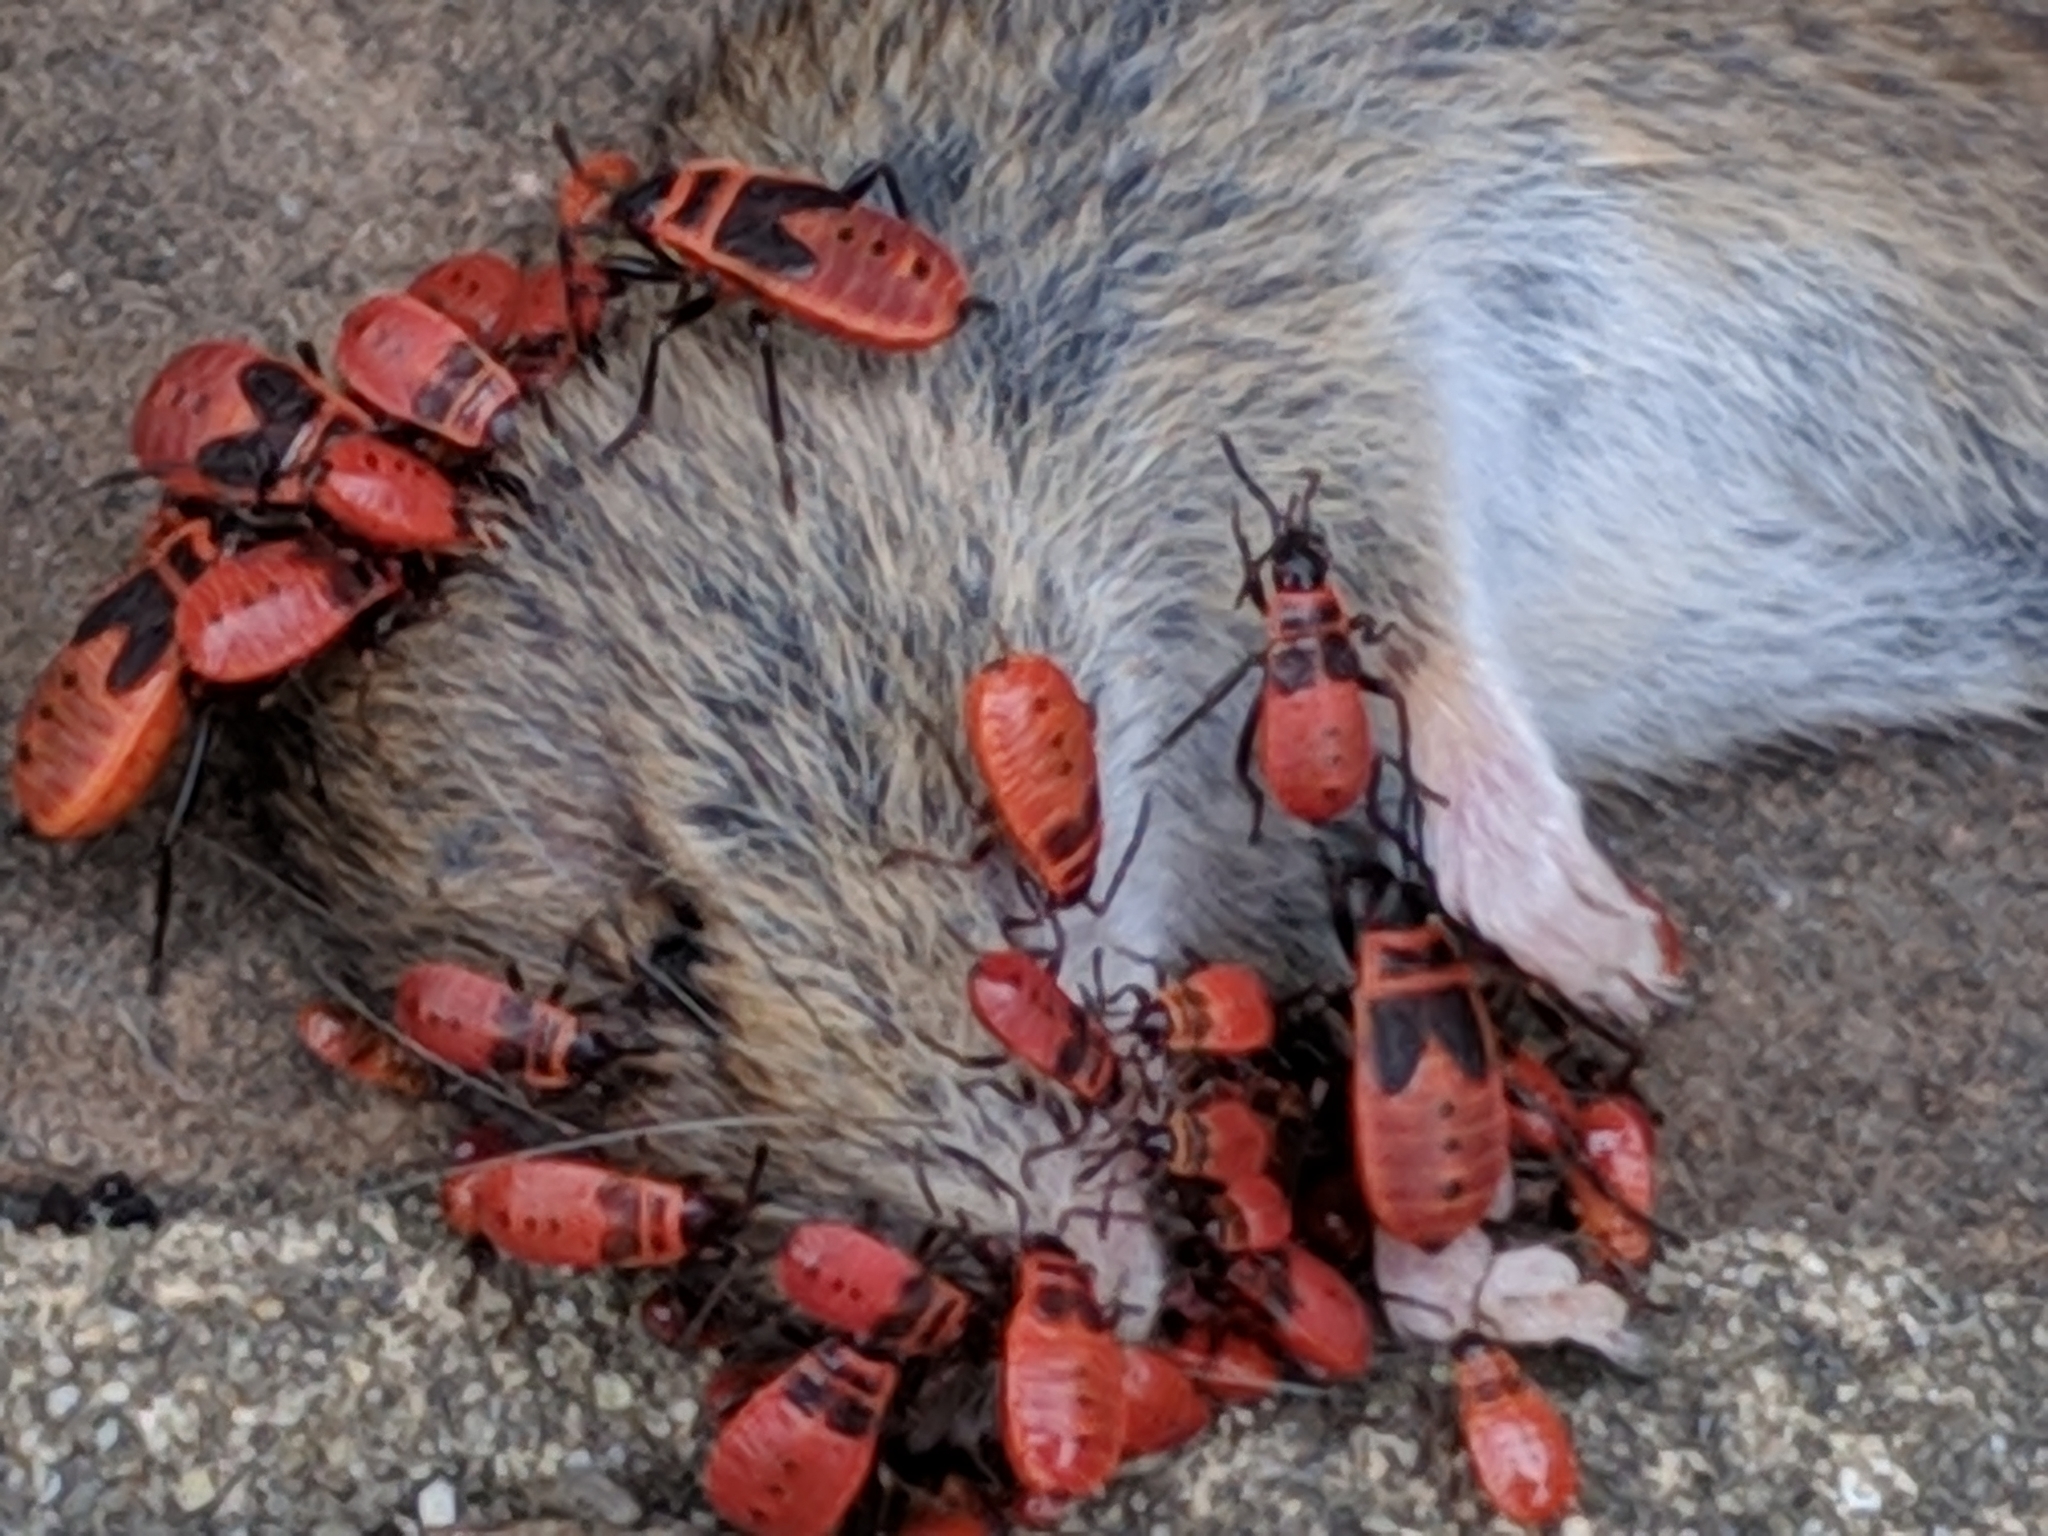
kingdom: Animalia
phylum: Arthropoda
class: Insecta
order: Hemiptera
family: Pyrrhocoridae
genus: Pyrrhocoris
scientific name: Pyrrhocoris apterus
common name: Firebug
